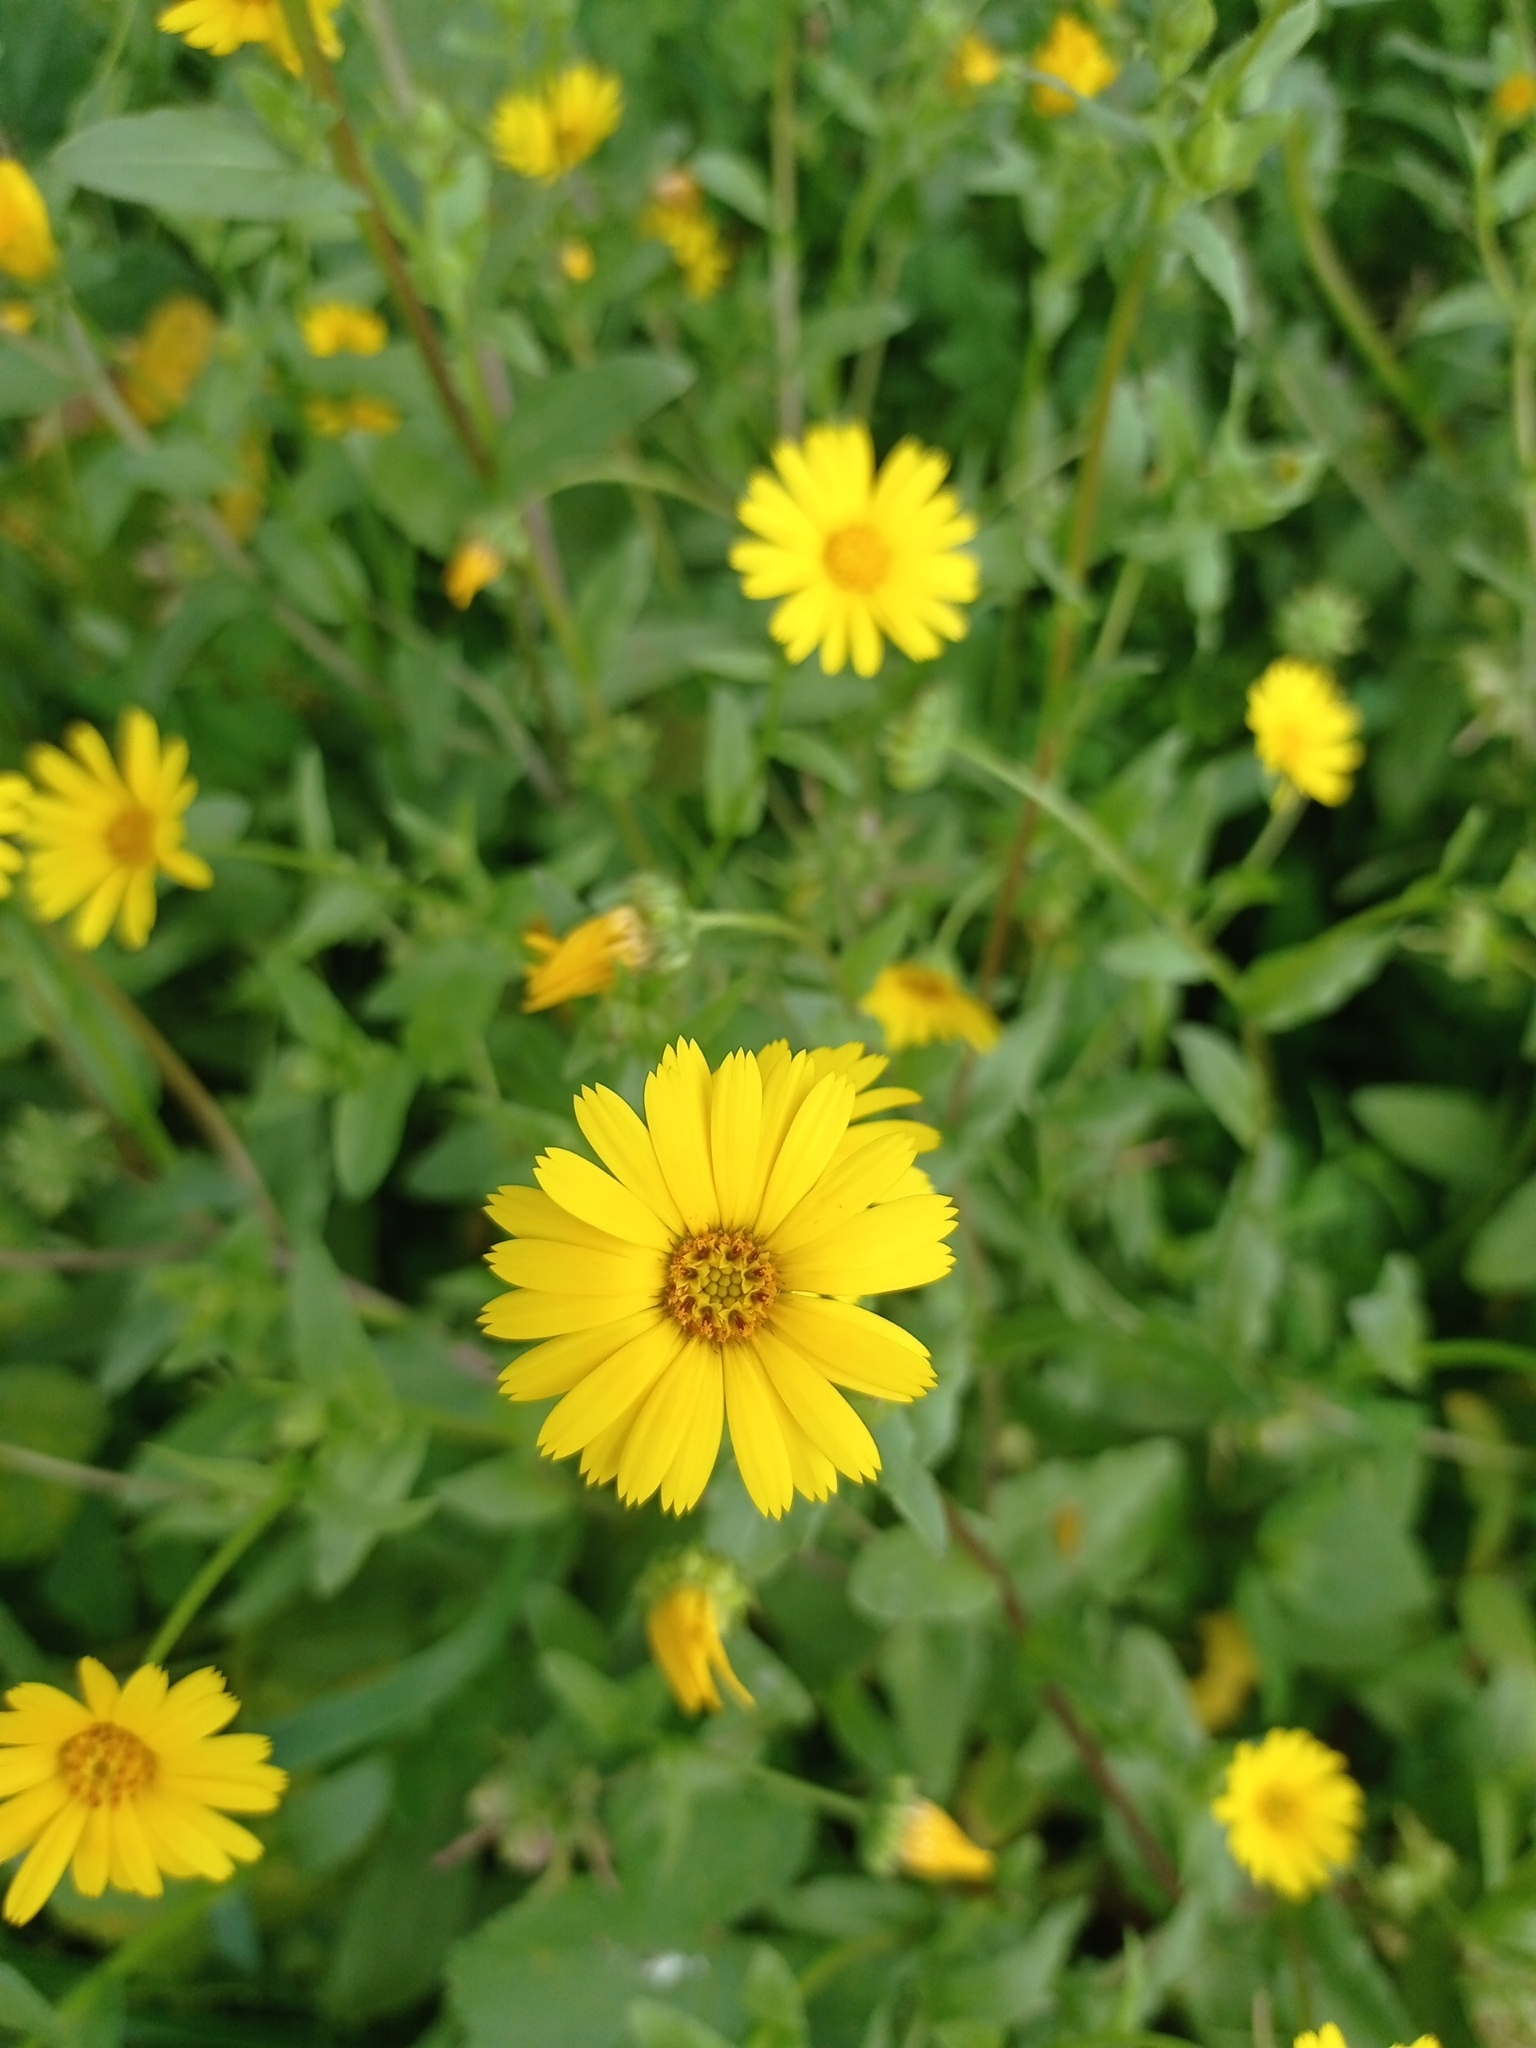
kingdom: Plantae
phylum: Tracheophyta
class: Magnoliopsida
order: Asterales
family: Asteraceae
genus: Calendula
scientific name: Calendula arvensis
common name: Field marigold
